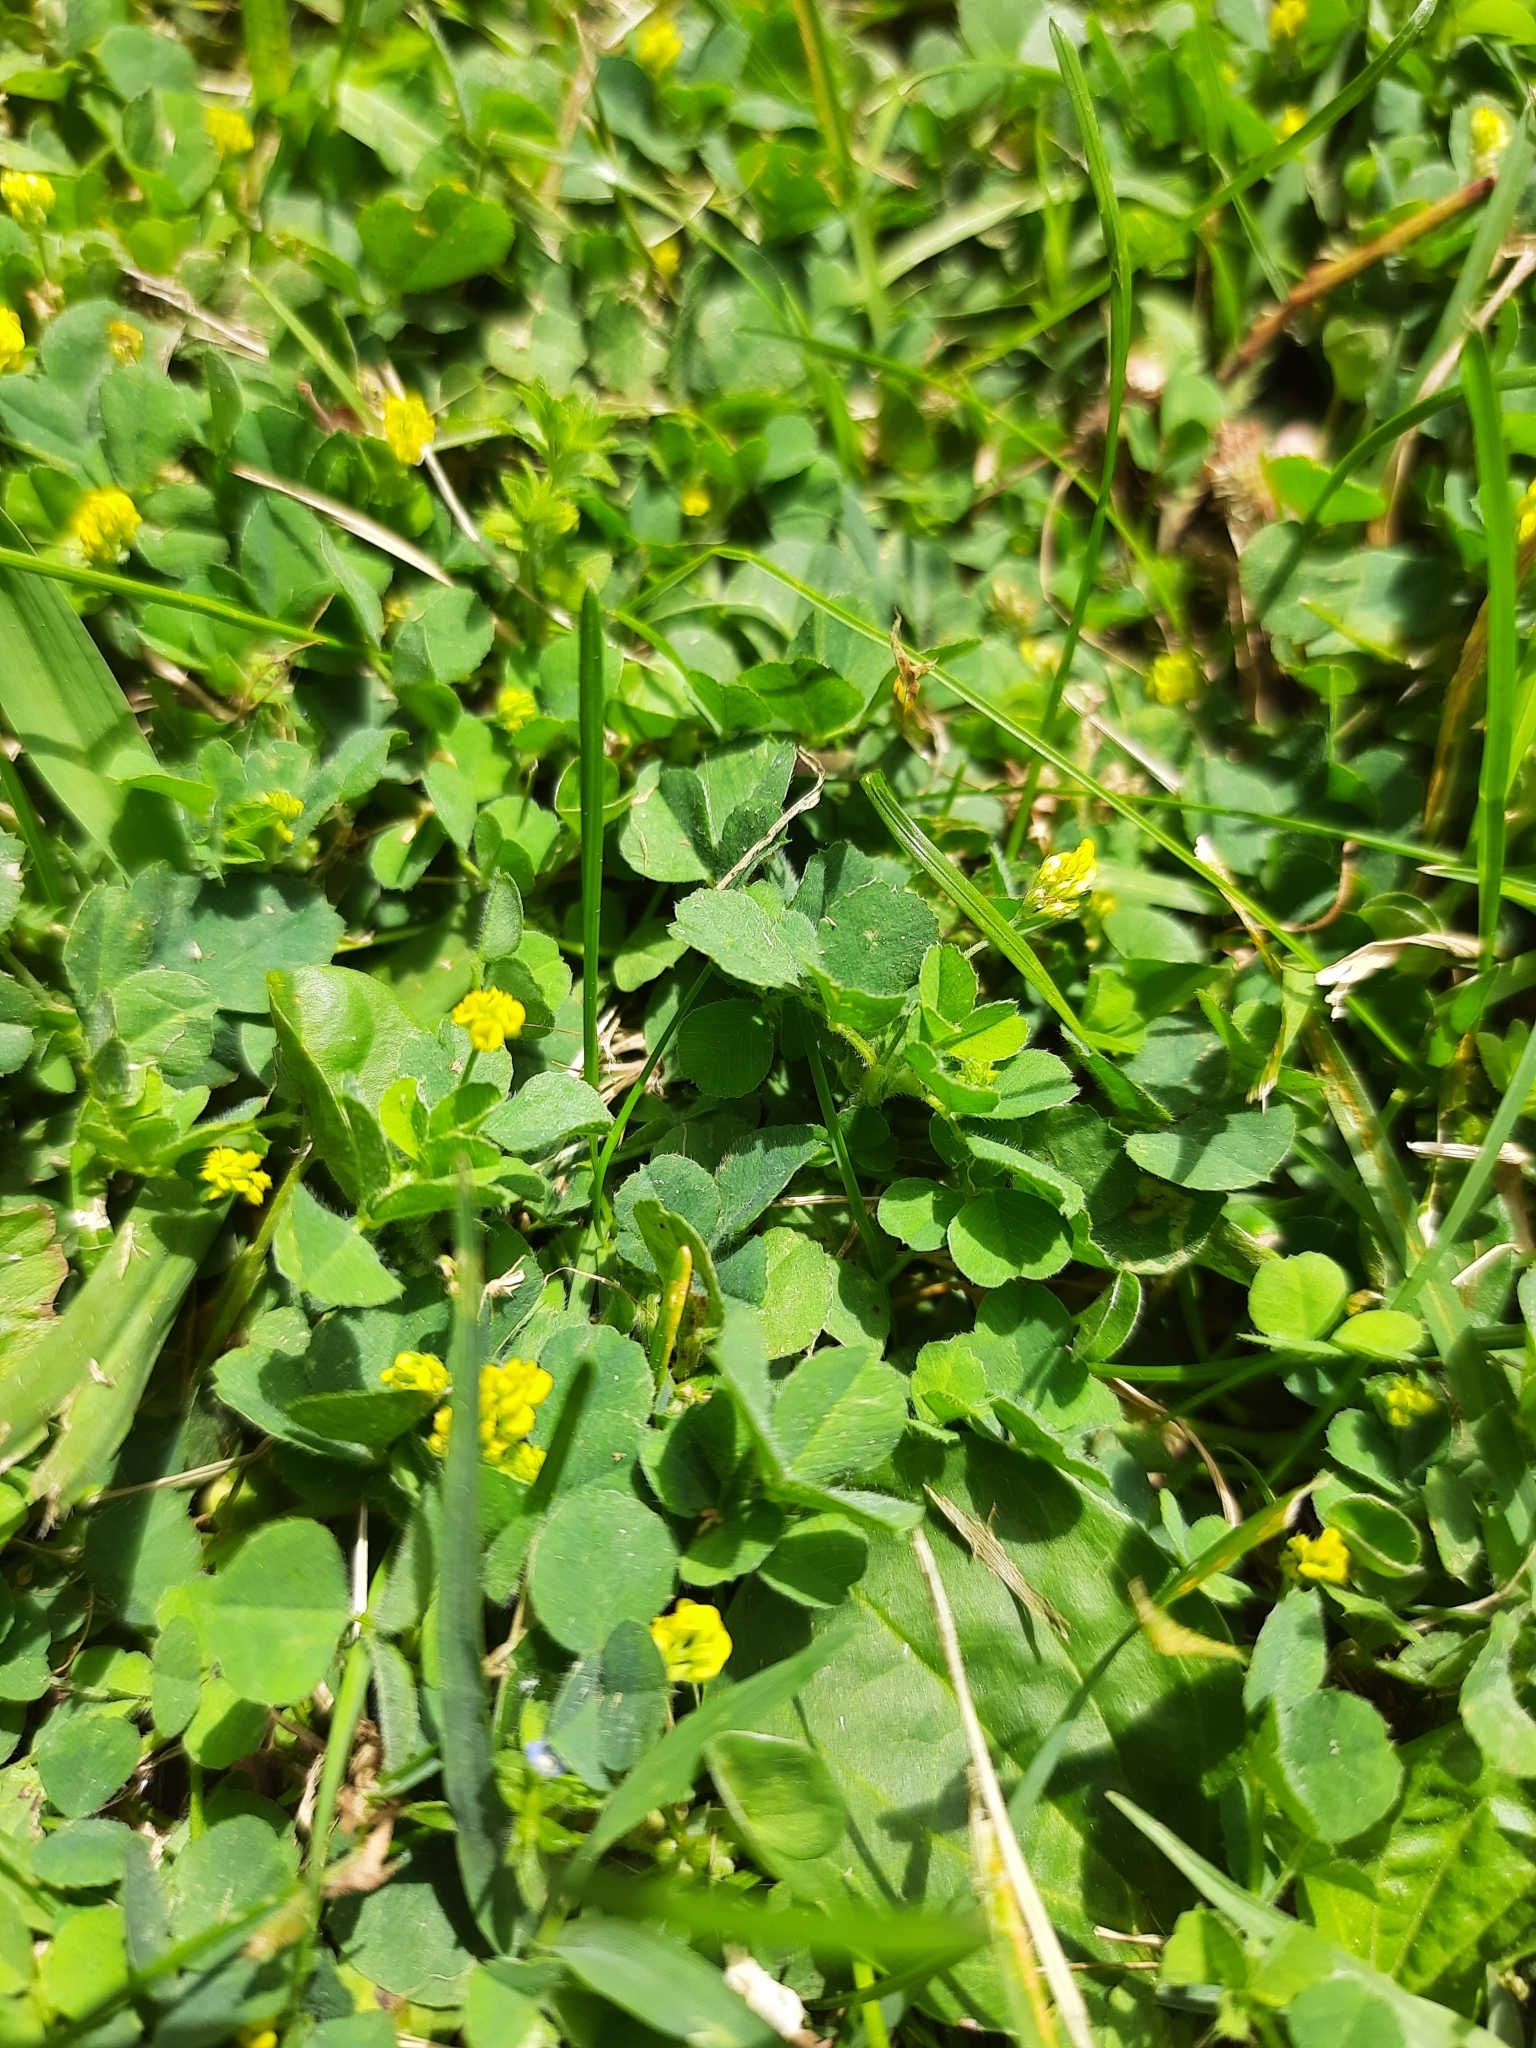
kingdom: Plantae
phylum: Tracheophyta
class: Magnoliopsida
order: Fabales
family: Fabaceae
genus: Medicago
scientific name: Medicago lupulina
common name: Black medick
